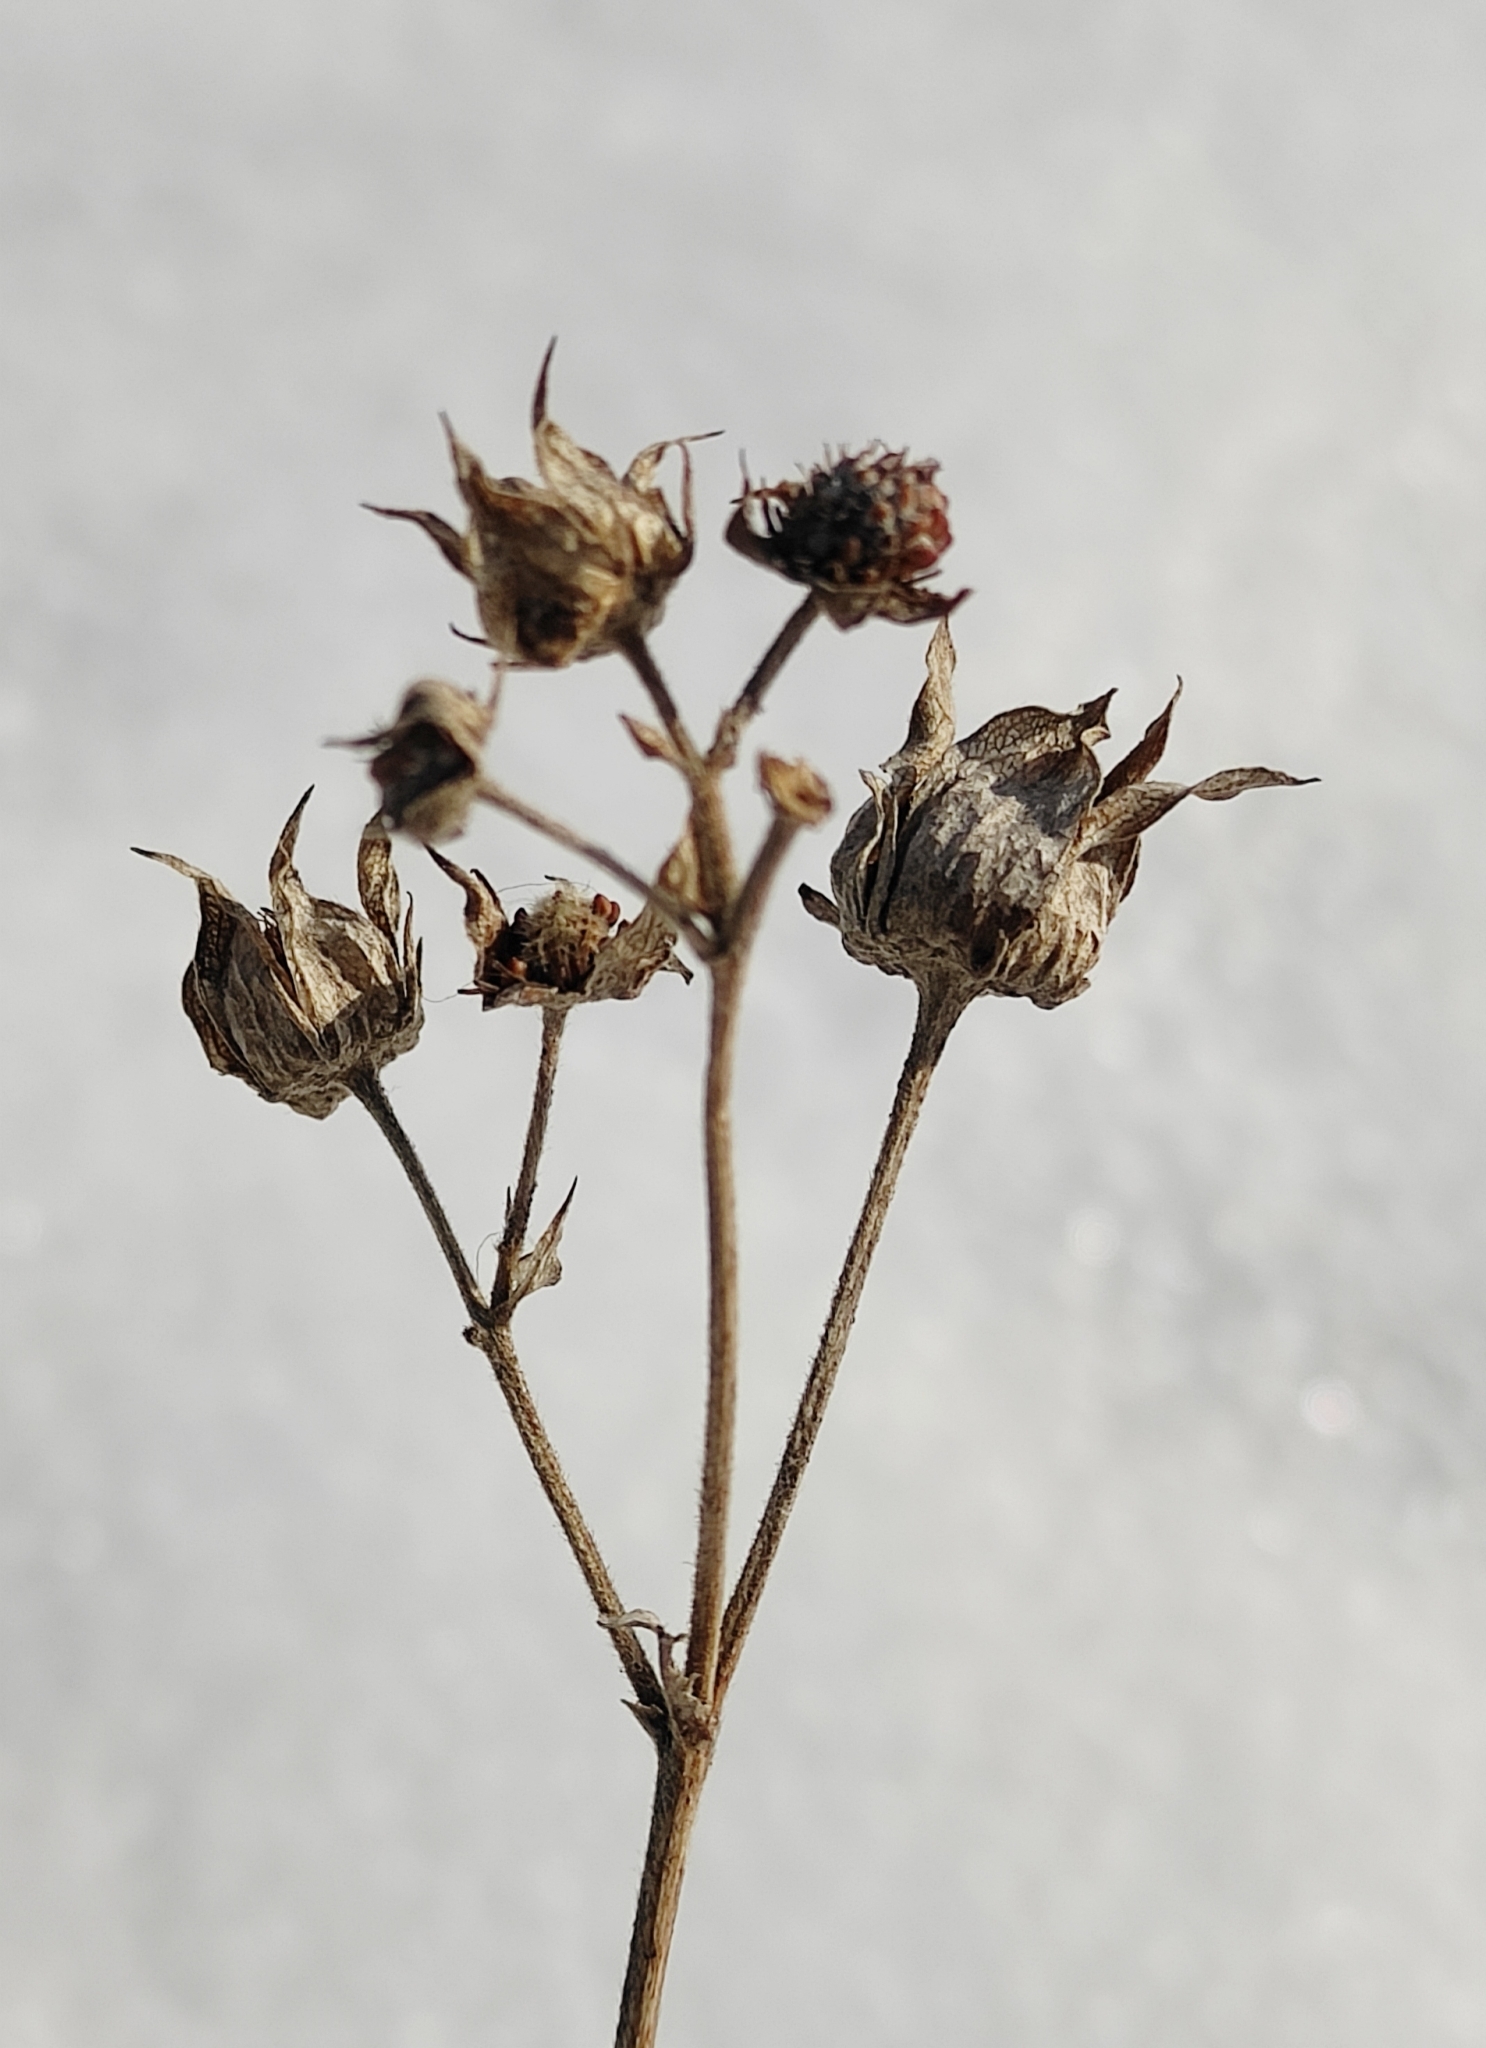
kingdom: Plantae
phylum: Tracheophyta
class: Magnoliopsida
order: Rosales
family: Rosaceae
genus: Comarum
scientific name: Comarum palustre
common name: Marsh cinquefoil
